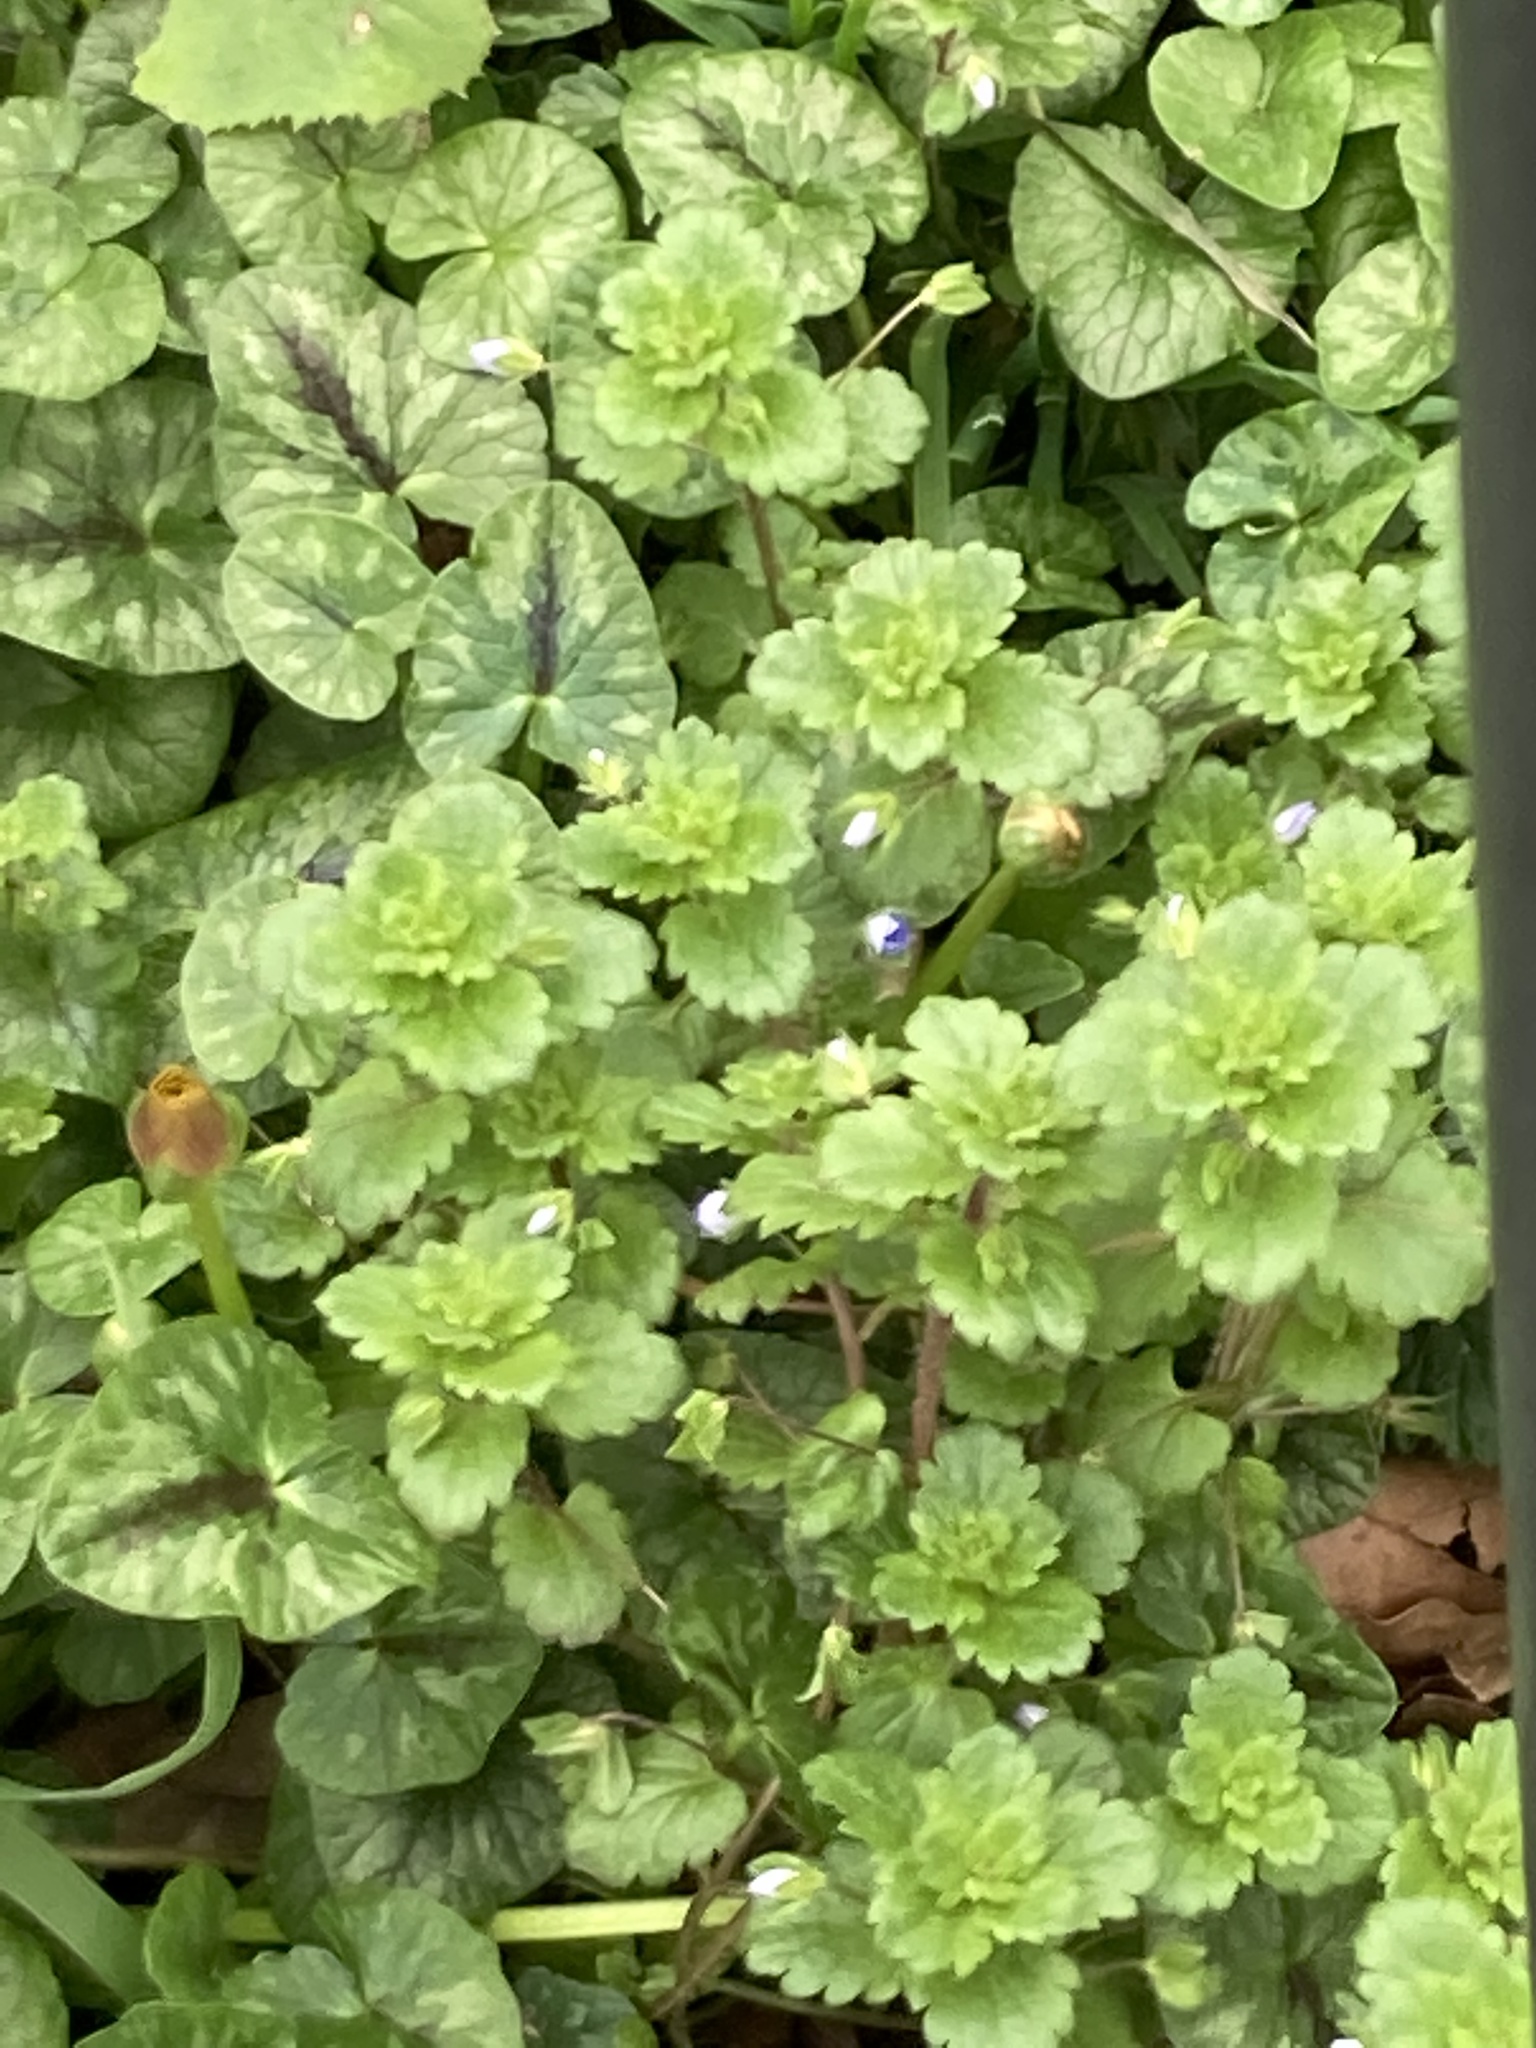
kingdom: Plantae
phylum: Tracheophyta
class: Magnoliopsida
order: Lamiales
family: Plantaginaceae
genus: Veronica
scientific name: Veronica persica
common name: Common field-speedwell
